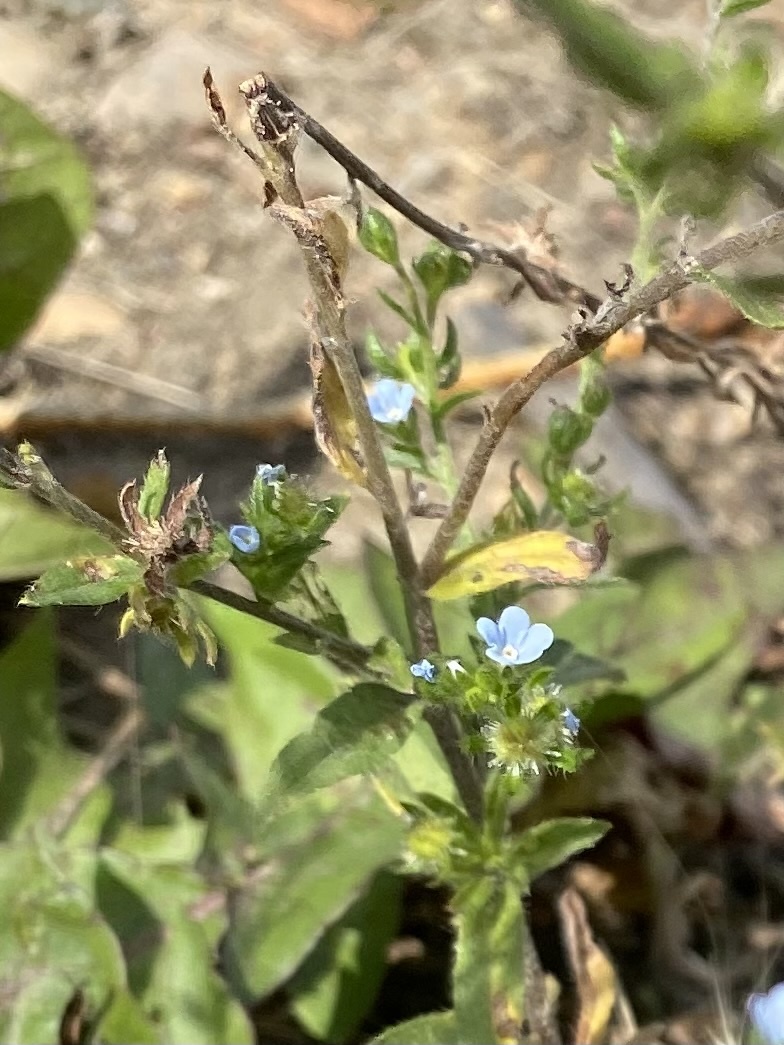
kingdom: Plantae
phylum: Tracheophyta
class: Magnoliopsida
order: Boraginales
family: Boraginaceae
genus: Lappula
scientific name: Lappula squarrosa
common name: European stickseed
